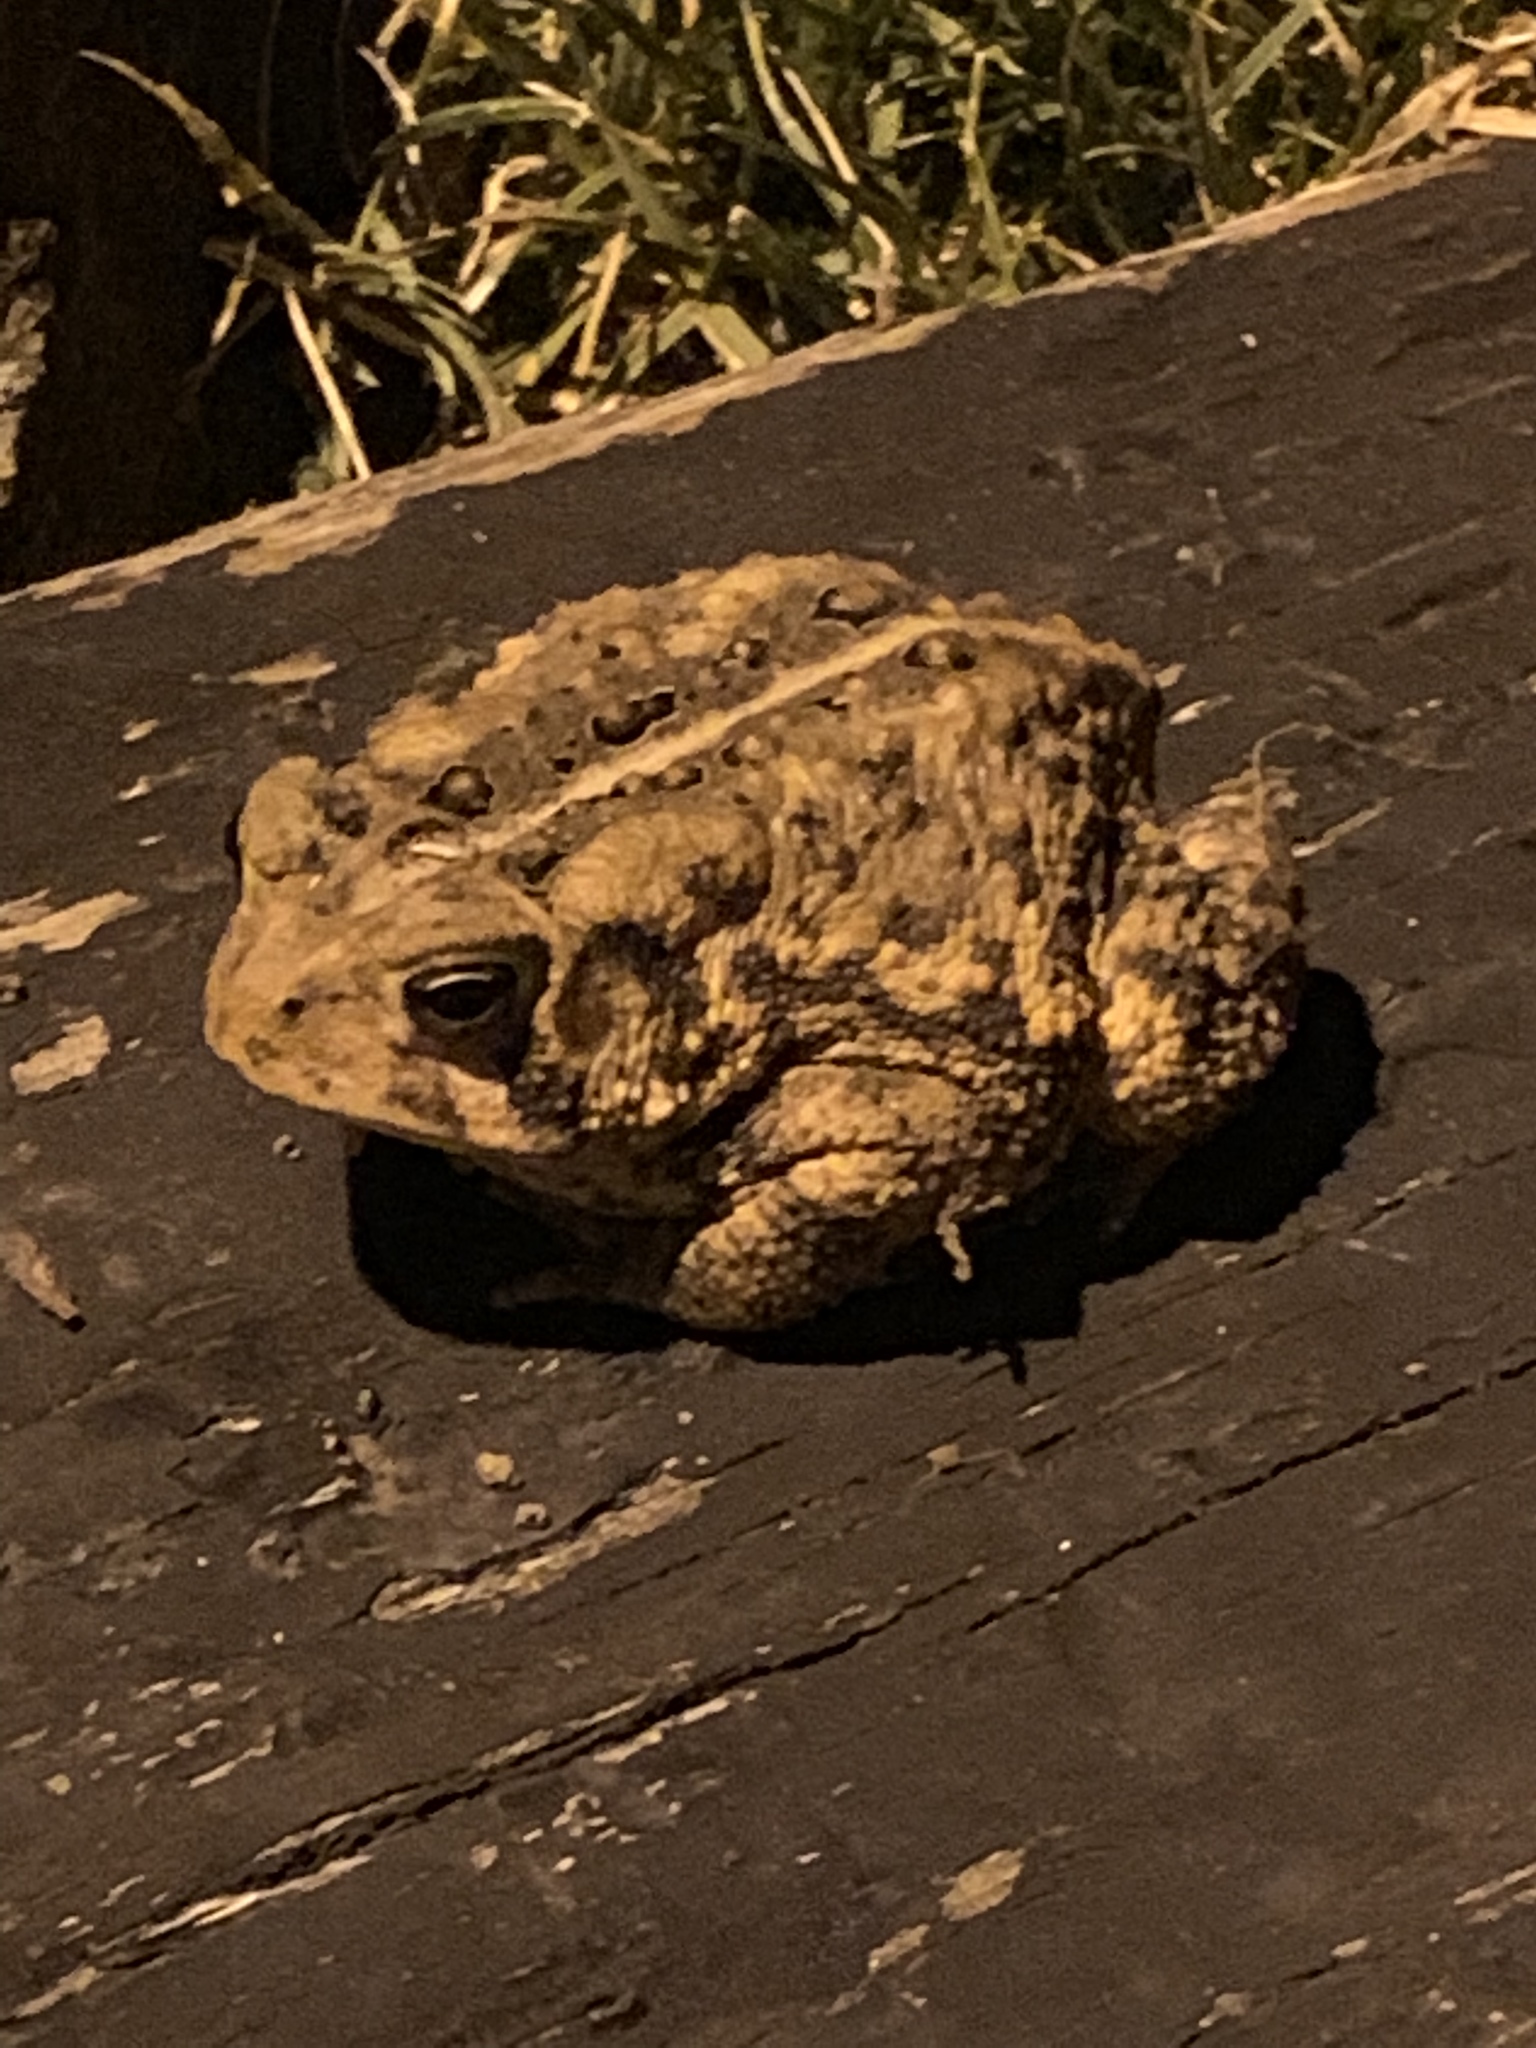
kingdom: Animalia
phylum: Chordata
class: Amphibia
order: Anura
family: Bufonidae
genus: Anaxyrus
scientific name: Anaxyrus americanus
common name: American toad
